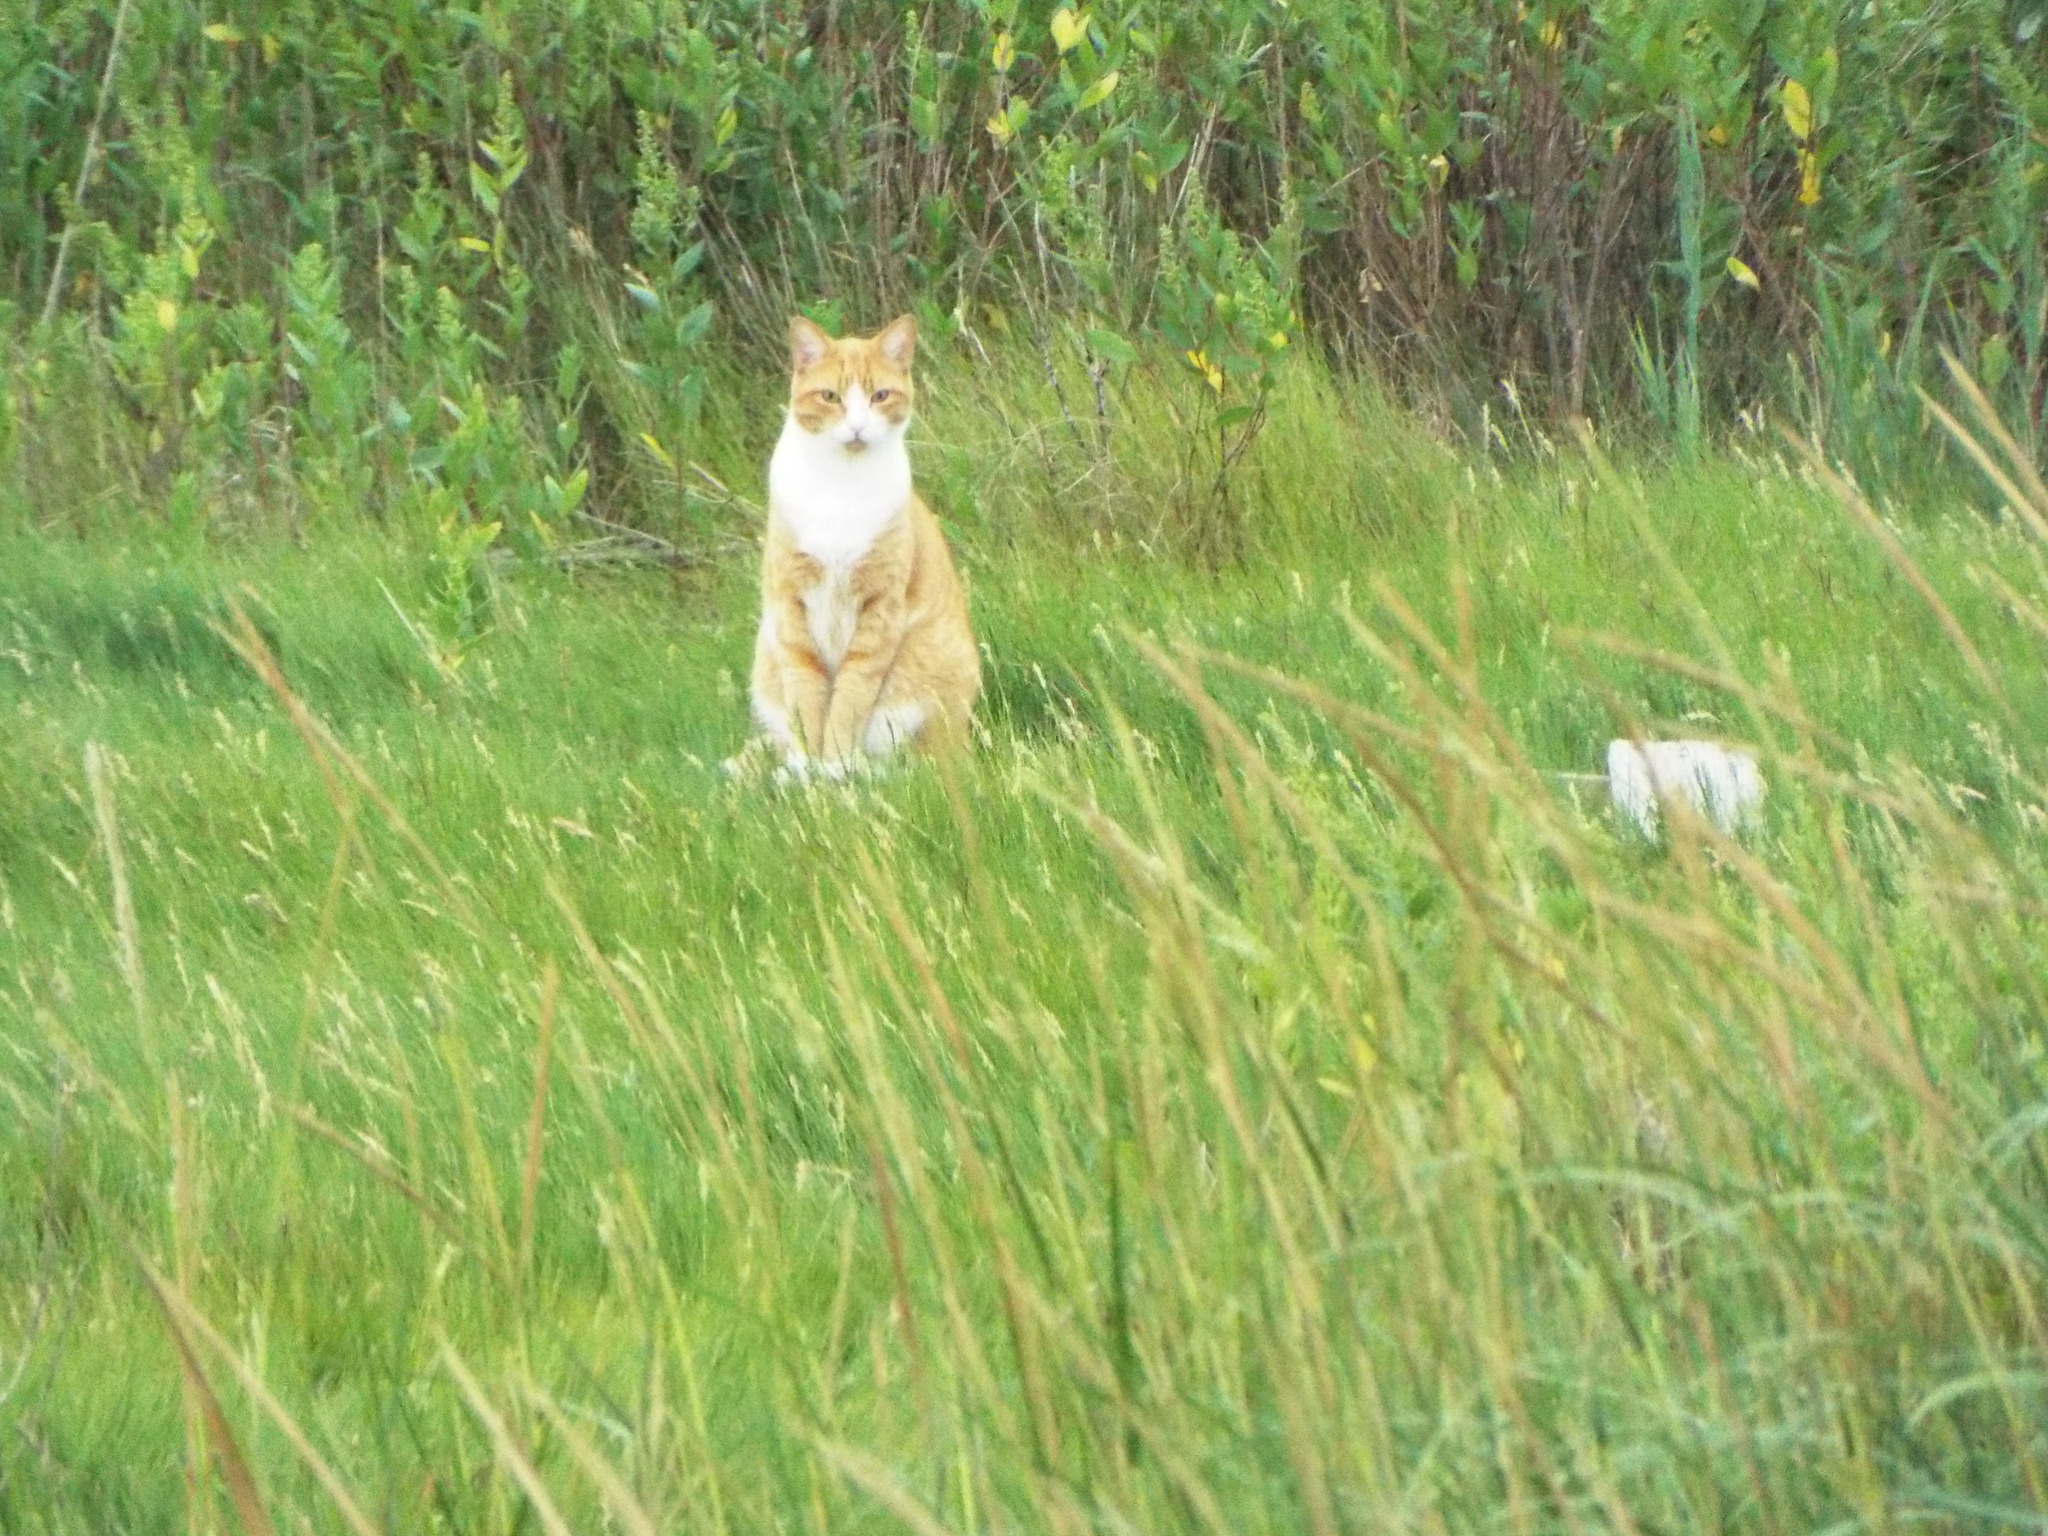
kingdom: Animalia
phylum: Chordata
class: Mammalia
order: Carnivora
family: Felidae
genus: Felis
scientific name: Felis catus
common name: Domestic cat
